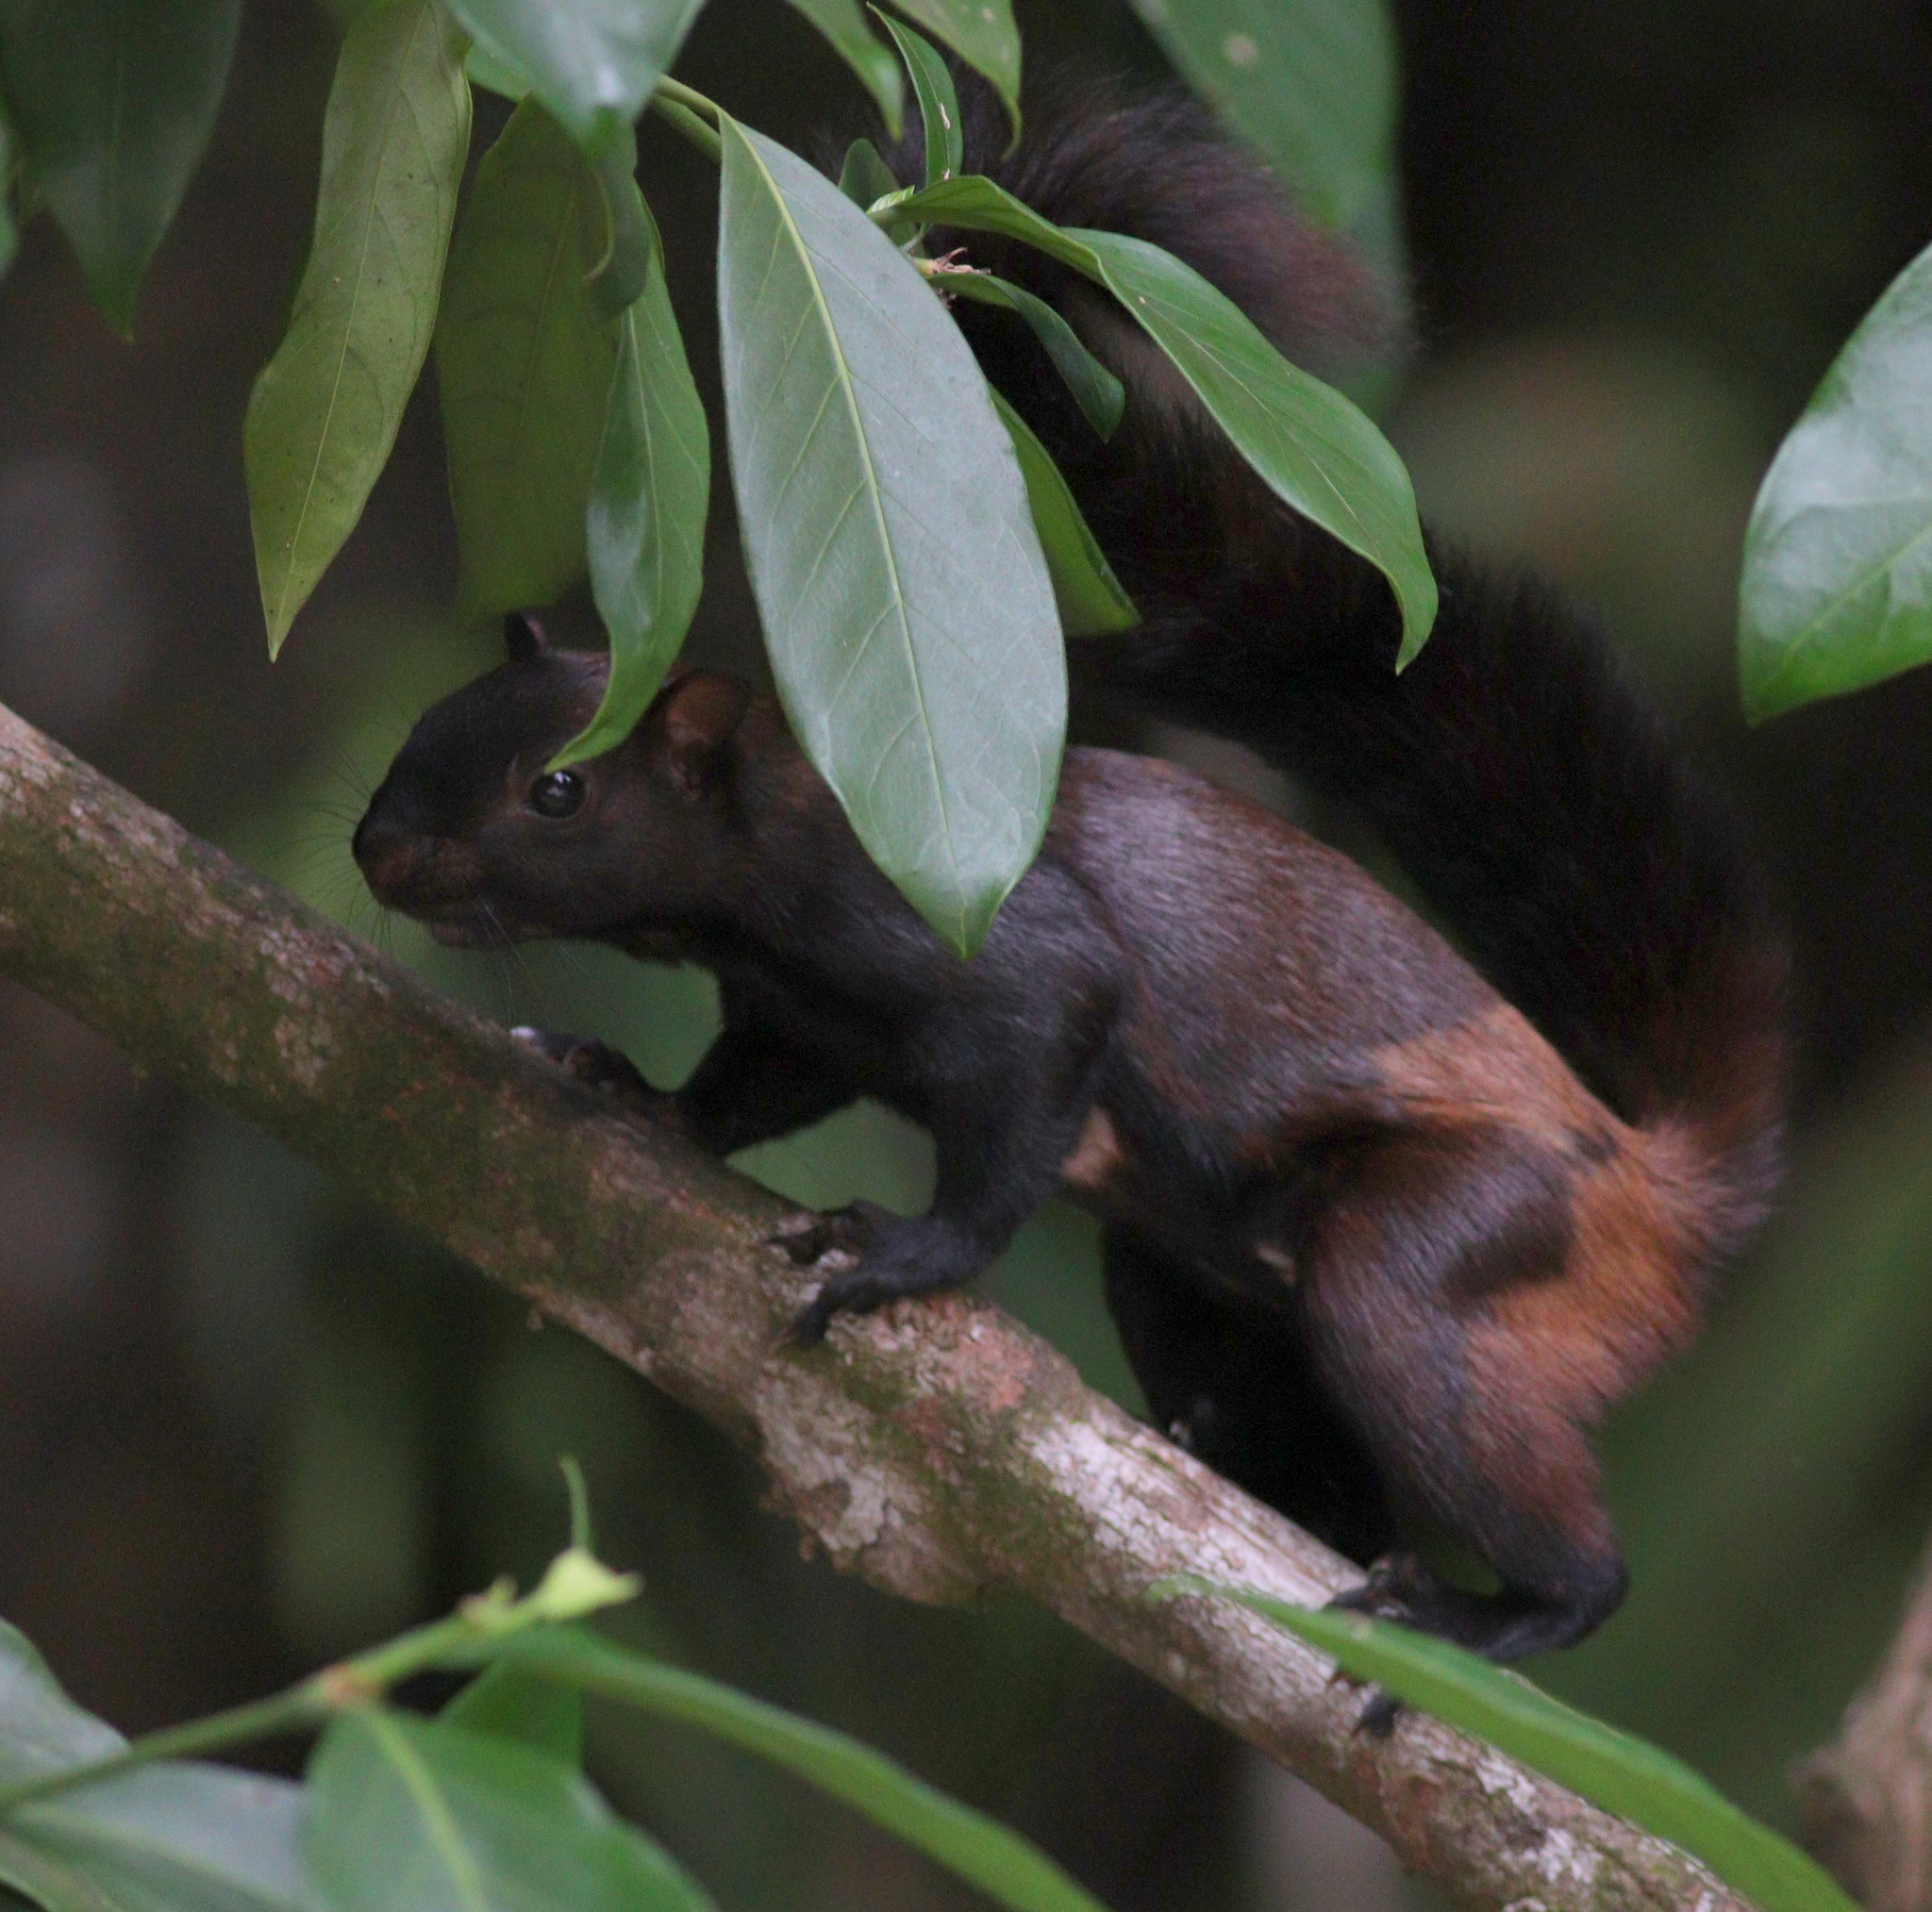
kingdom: Animalia
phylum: Chordata
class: Mammalia
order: Rodentia
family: Sciuridae
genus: Sciurus
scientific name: Sciurus variegatoides
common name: Variegated squirrel
